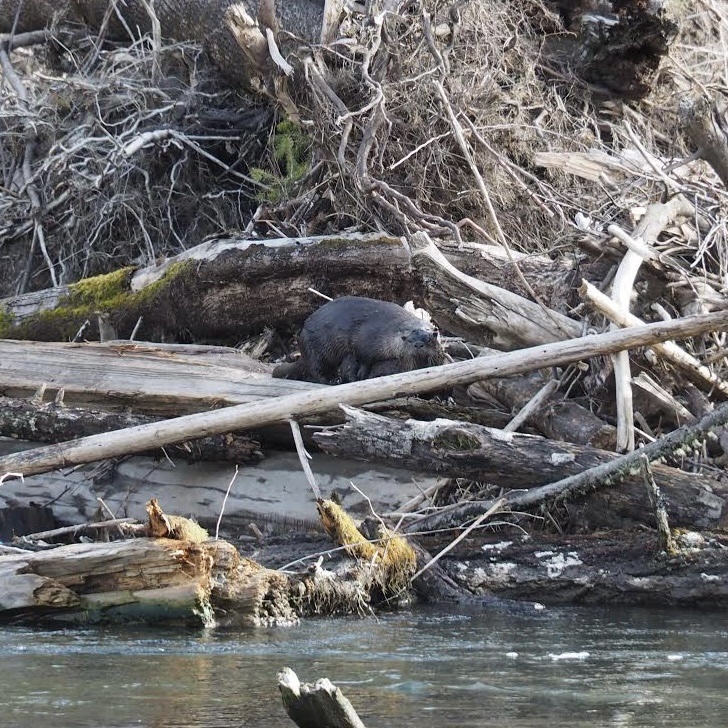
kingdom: Animalia
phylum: Chordata
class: Mammalia
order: Carnivora
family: Mustelidae
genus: Lontra
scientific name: Lontra canadensis
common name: North american river otter
